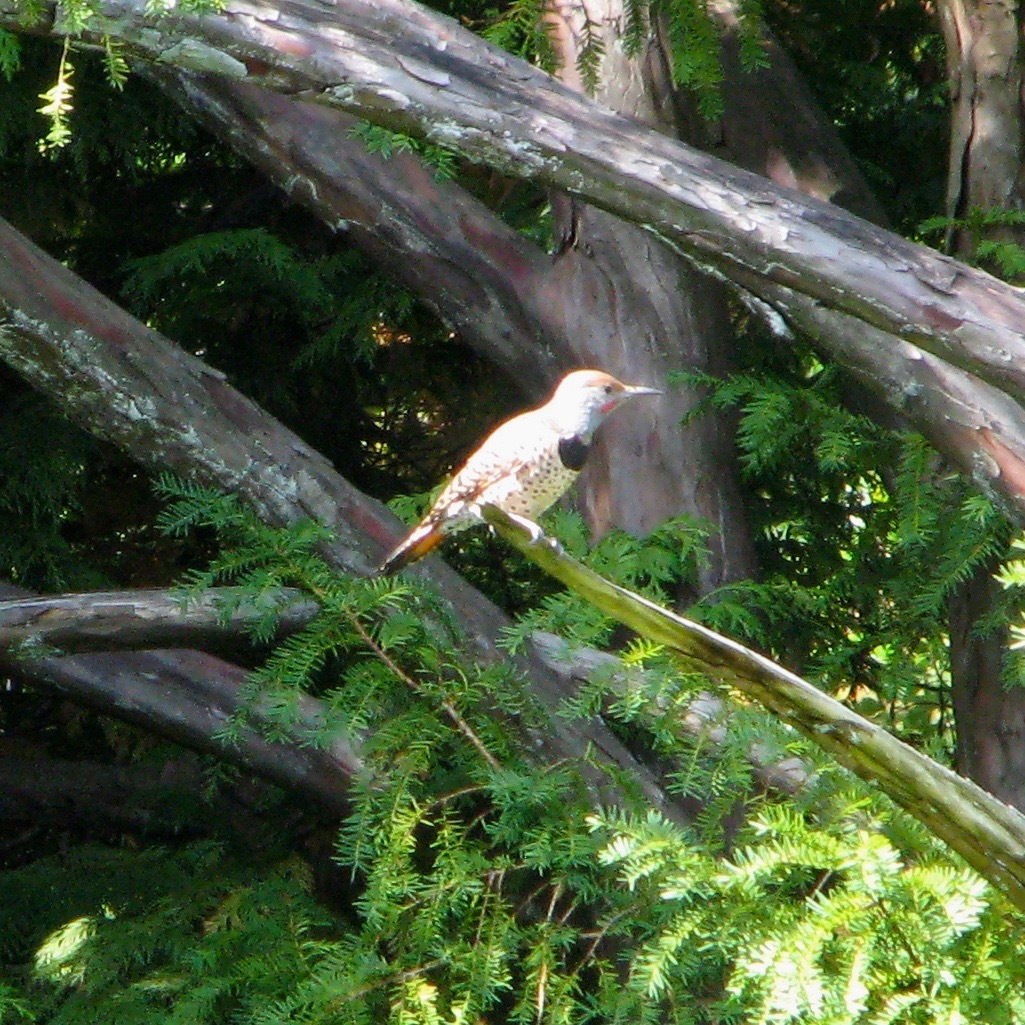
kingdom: Animalia
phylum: Chordata
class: Aves
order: Piciformes
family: Picidae
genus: Colaptes
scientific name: Colaptes auratus
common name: Northern flicker
